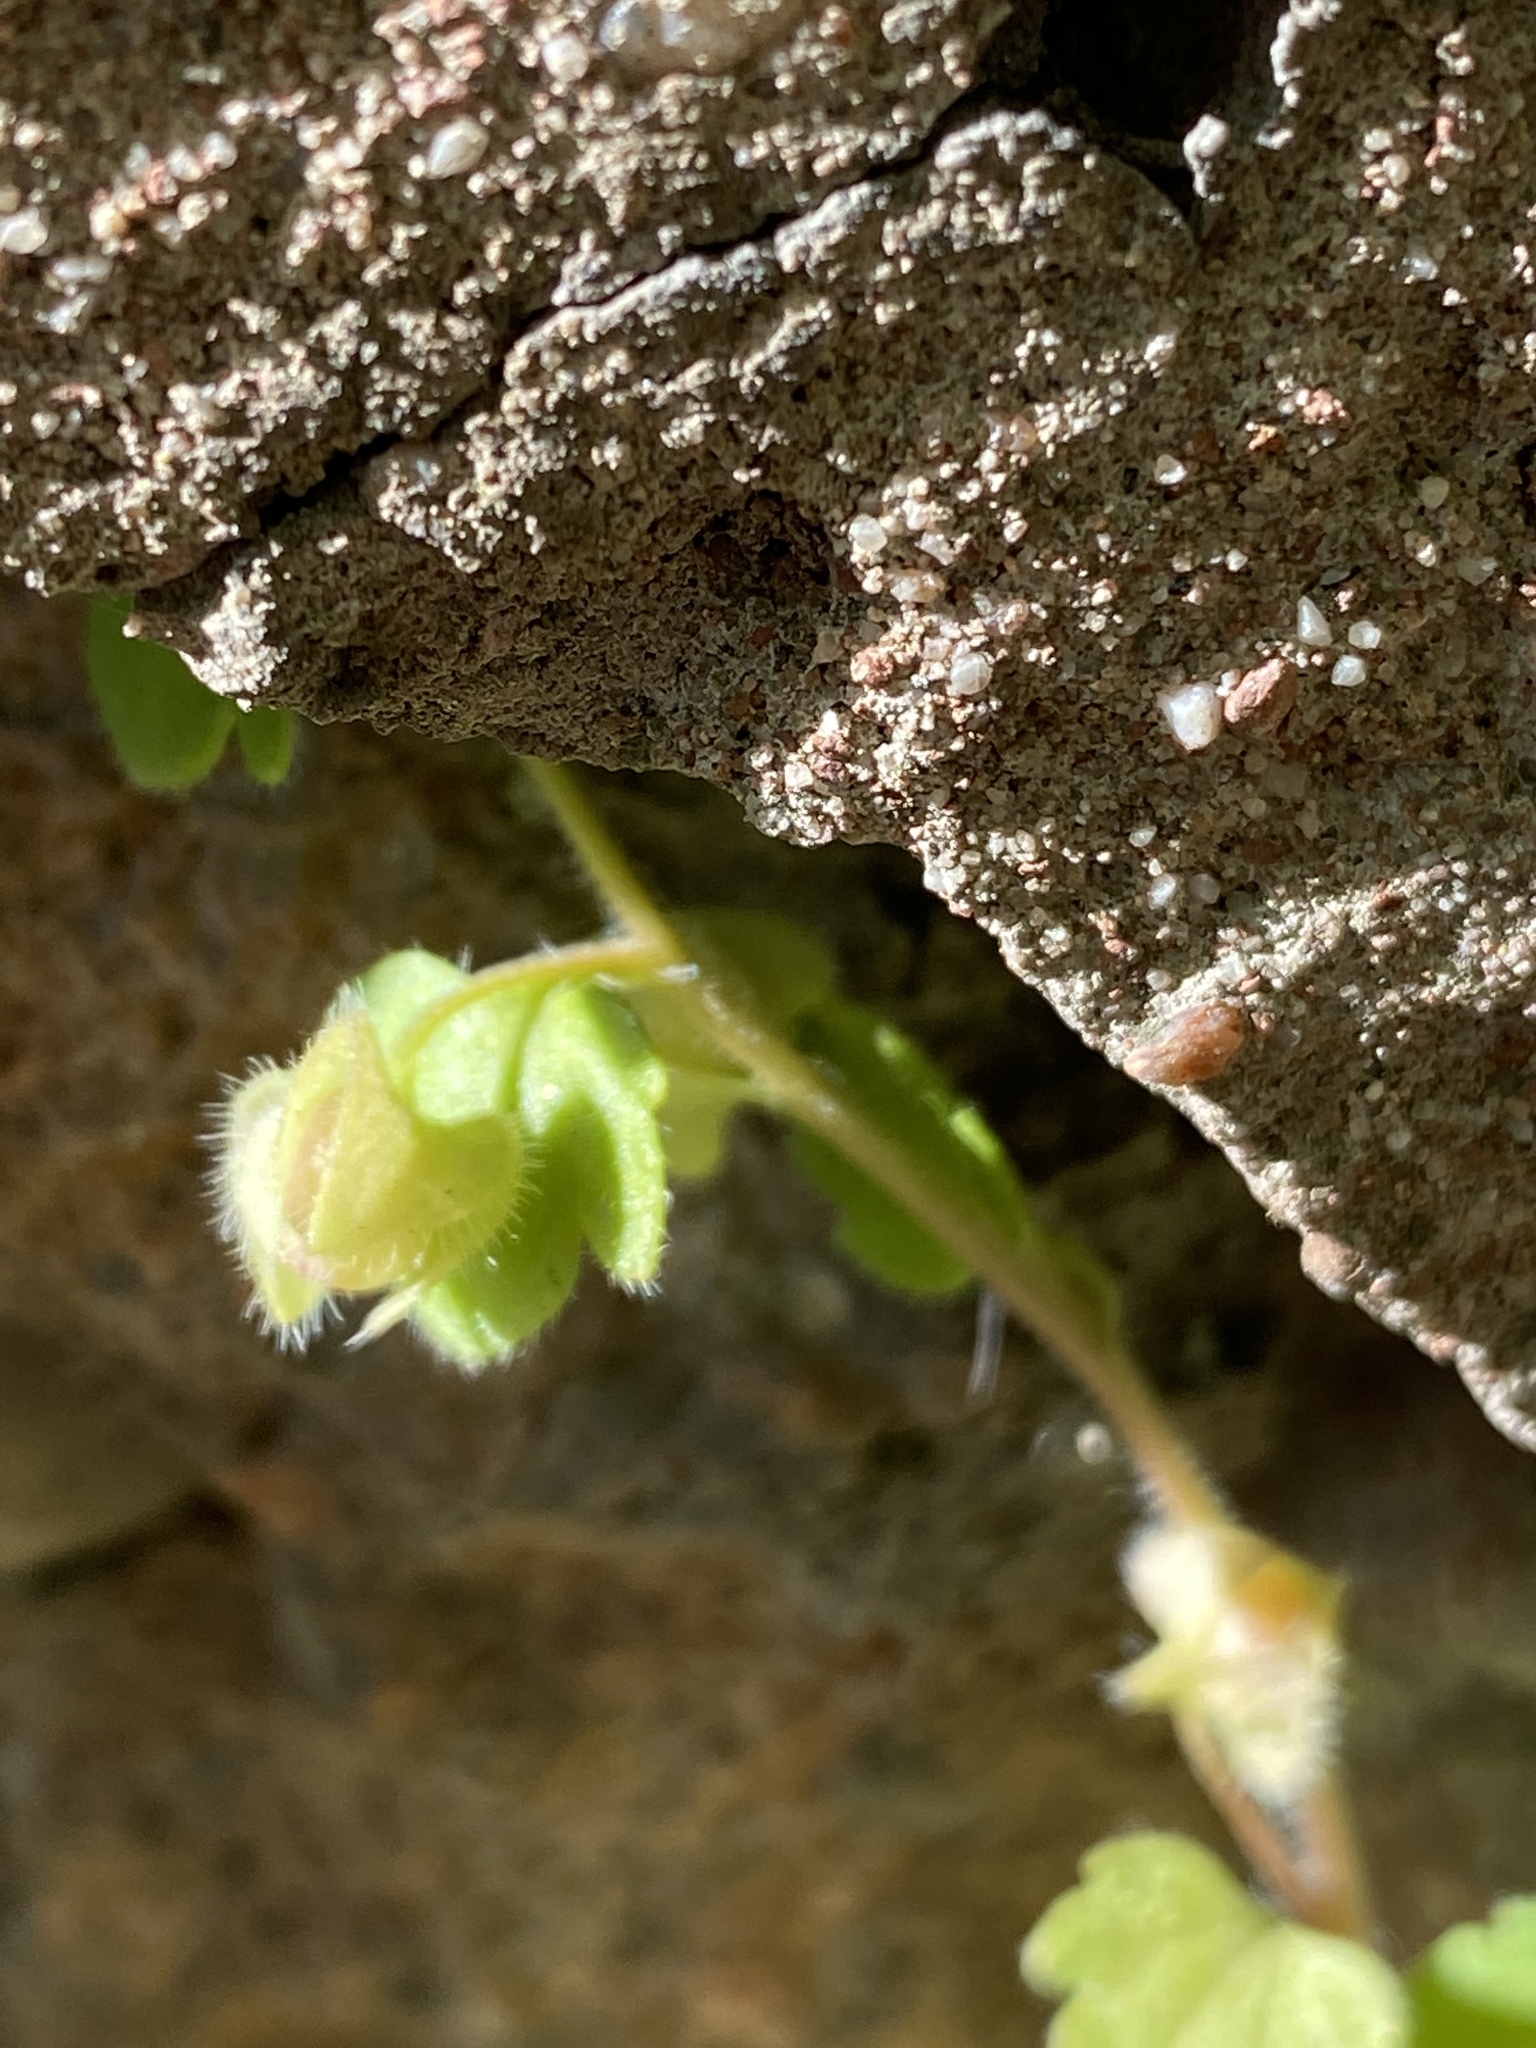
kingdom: Plantae
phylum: Tracheophyta
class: Magnoliopsida
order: Lamiales
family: Plantaginaceae
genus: Veronica
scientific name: Veronica hederifolia
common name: Ivy-leaved speedwell
